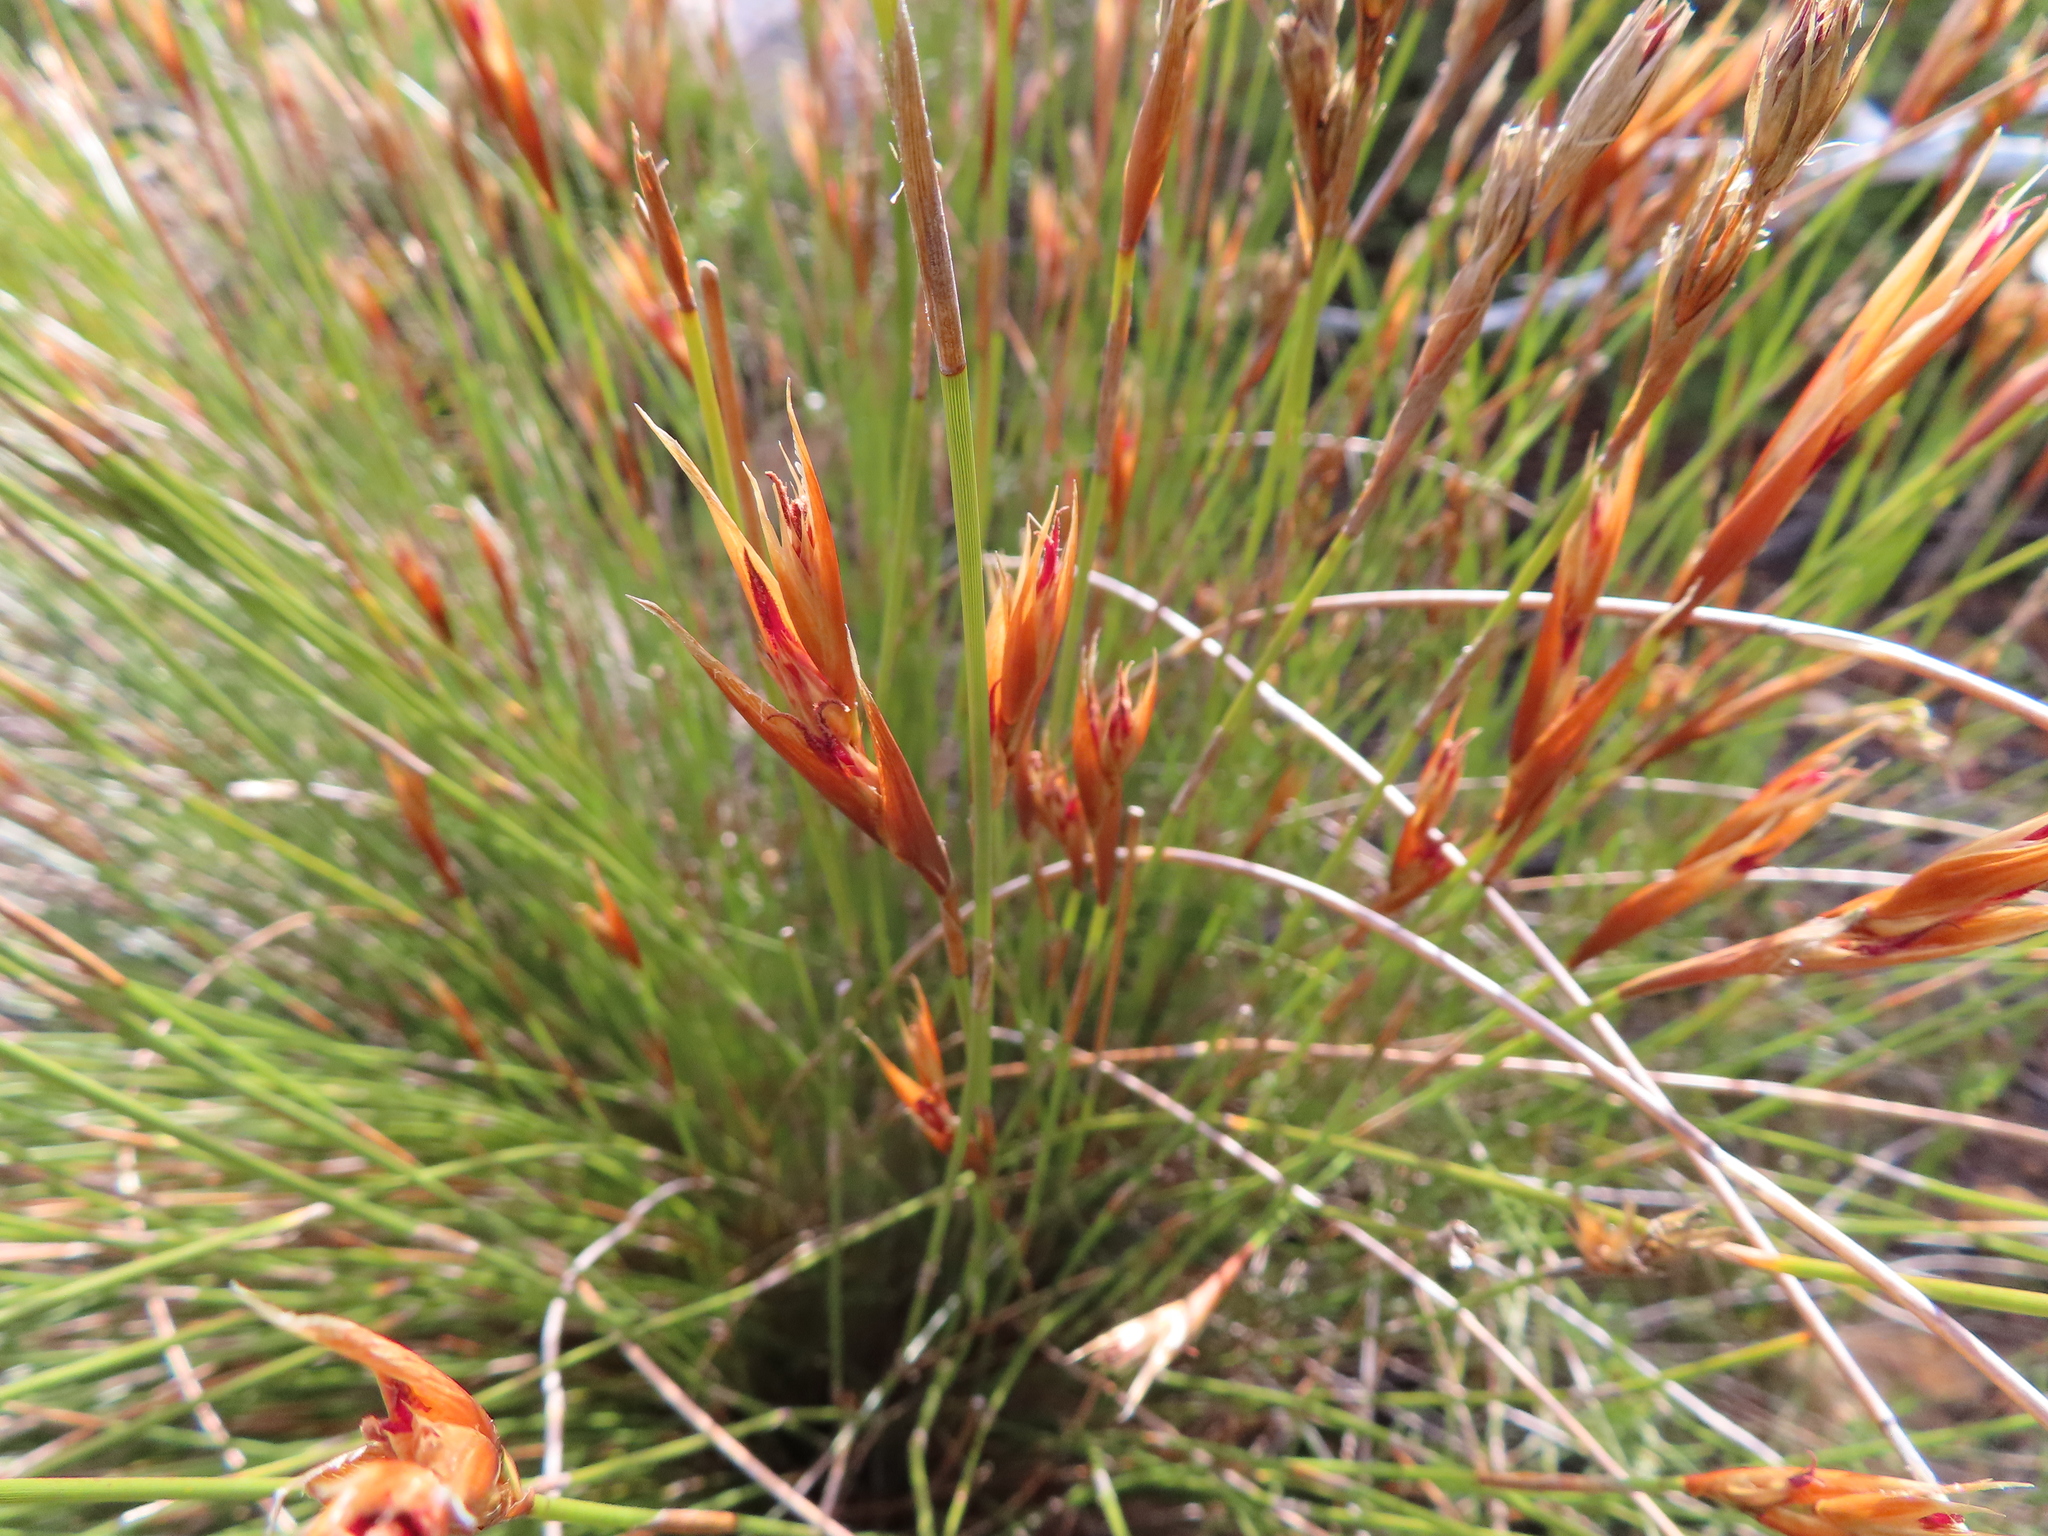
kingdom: Plantae
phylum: Tracheophyta
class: Liliopsida
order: Poales
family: Restionaceae
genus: Hypodiscus
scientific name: Hypodiscus argenteus
